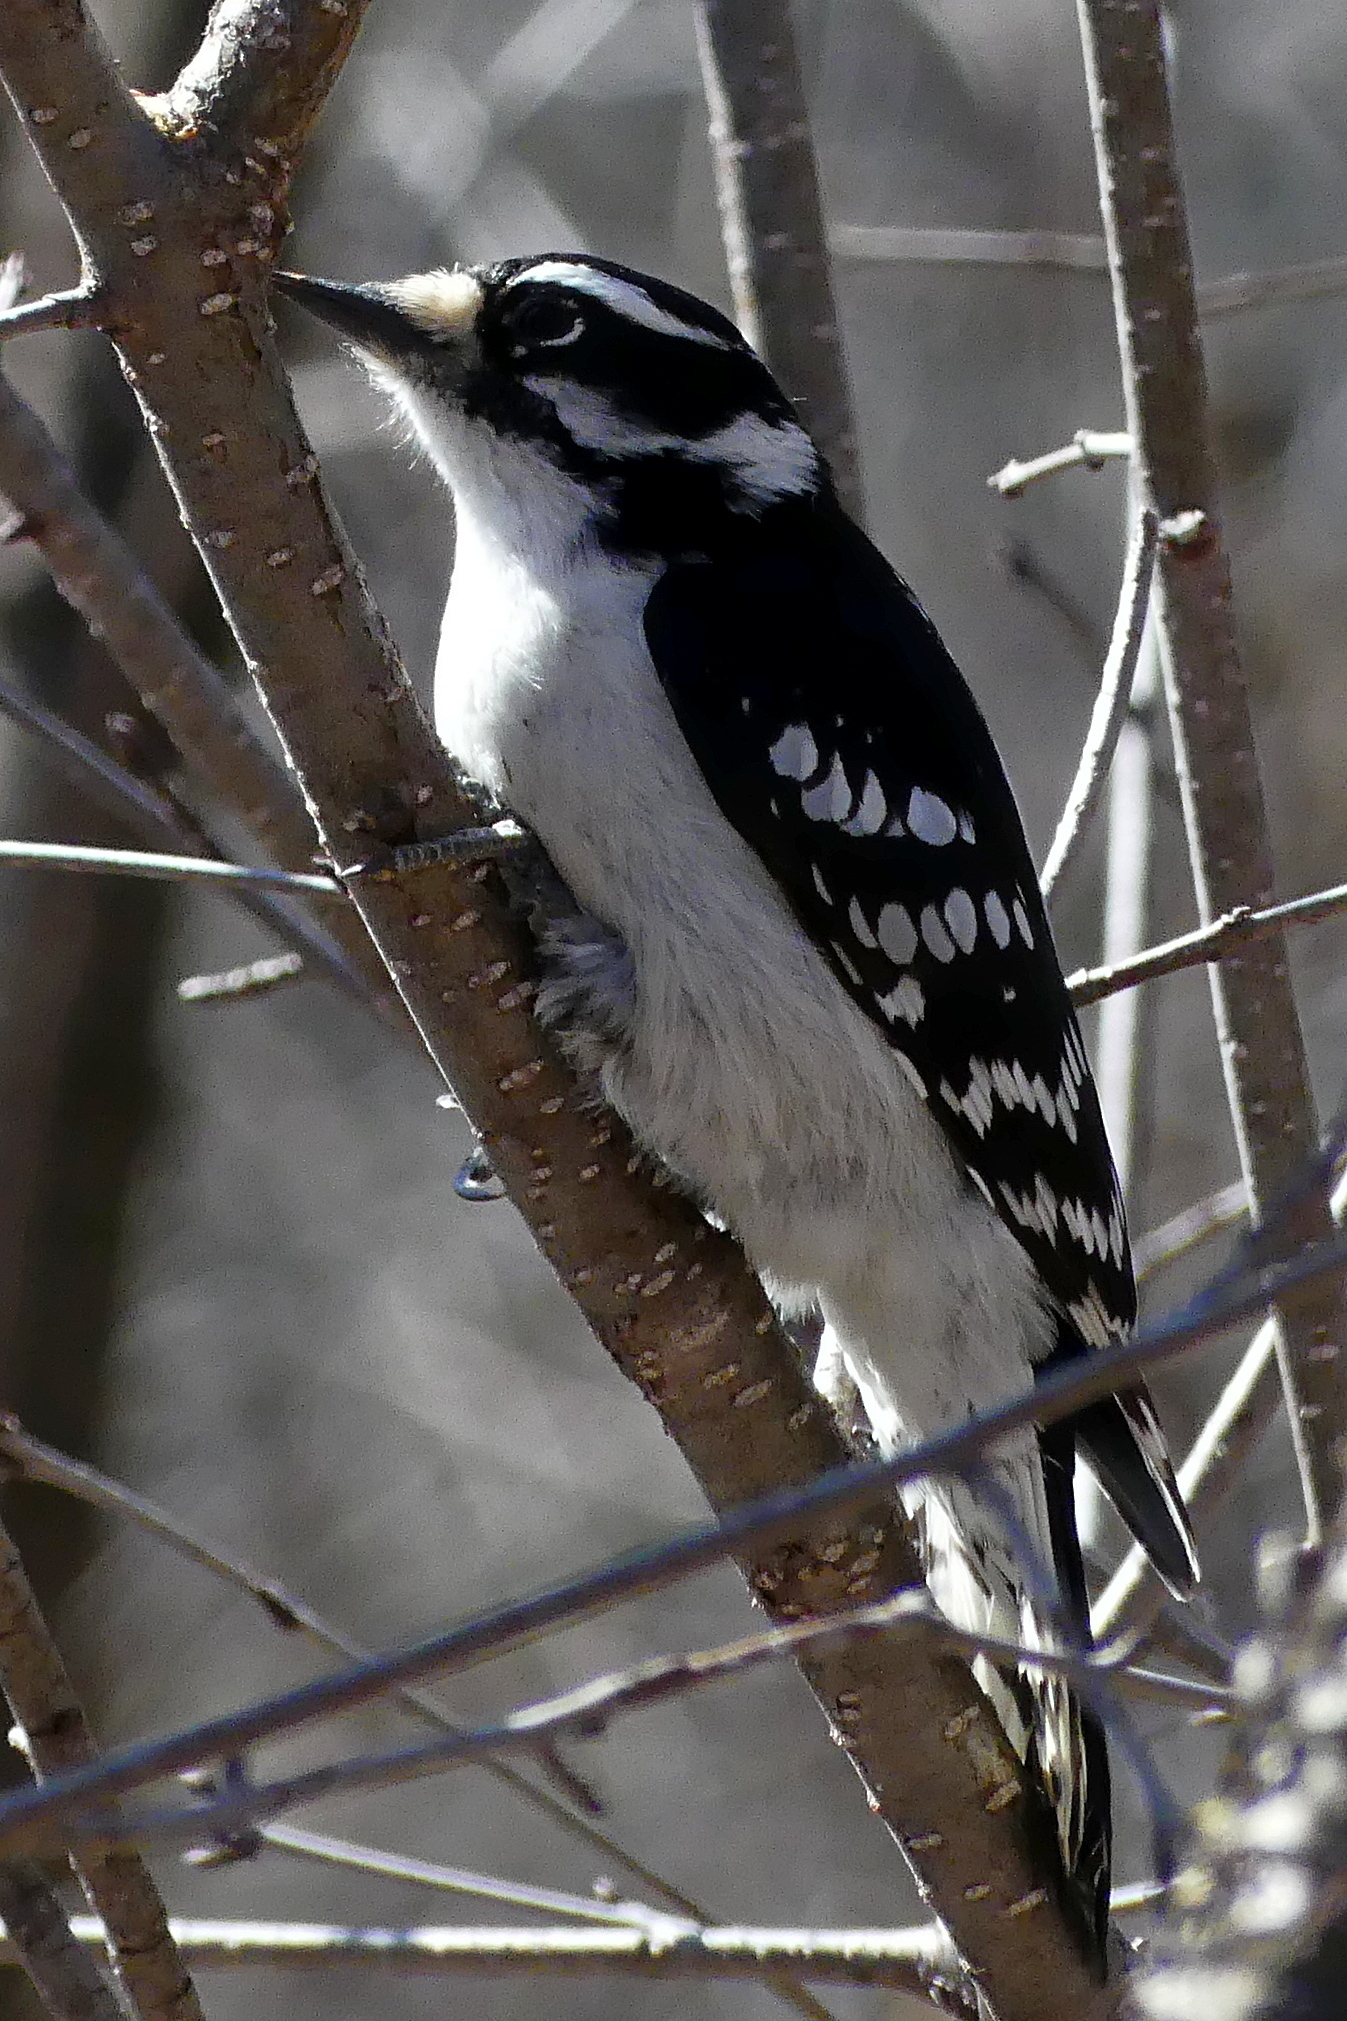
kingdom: Animalia
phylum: Chordata
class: Aves
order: Piciformes
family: Picidae
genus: Dryobates
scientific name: Dryobates pubescens
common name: Downy woodpecker
